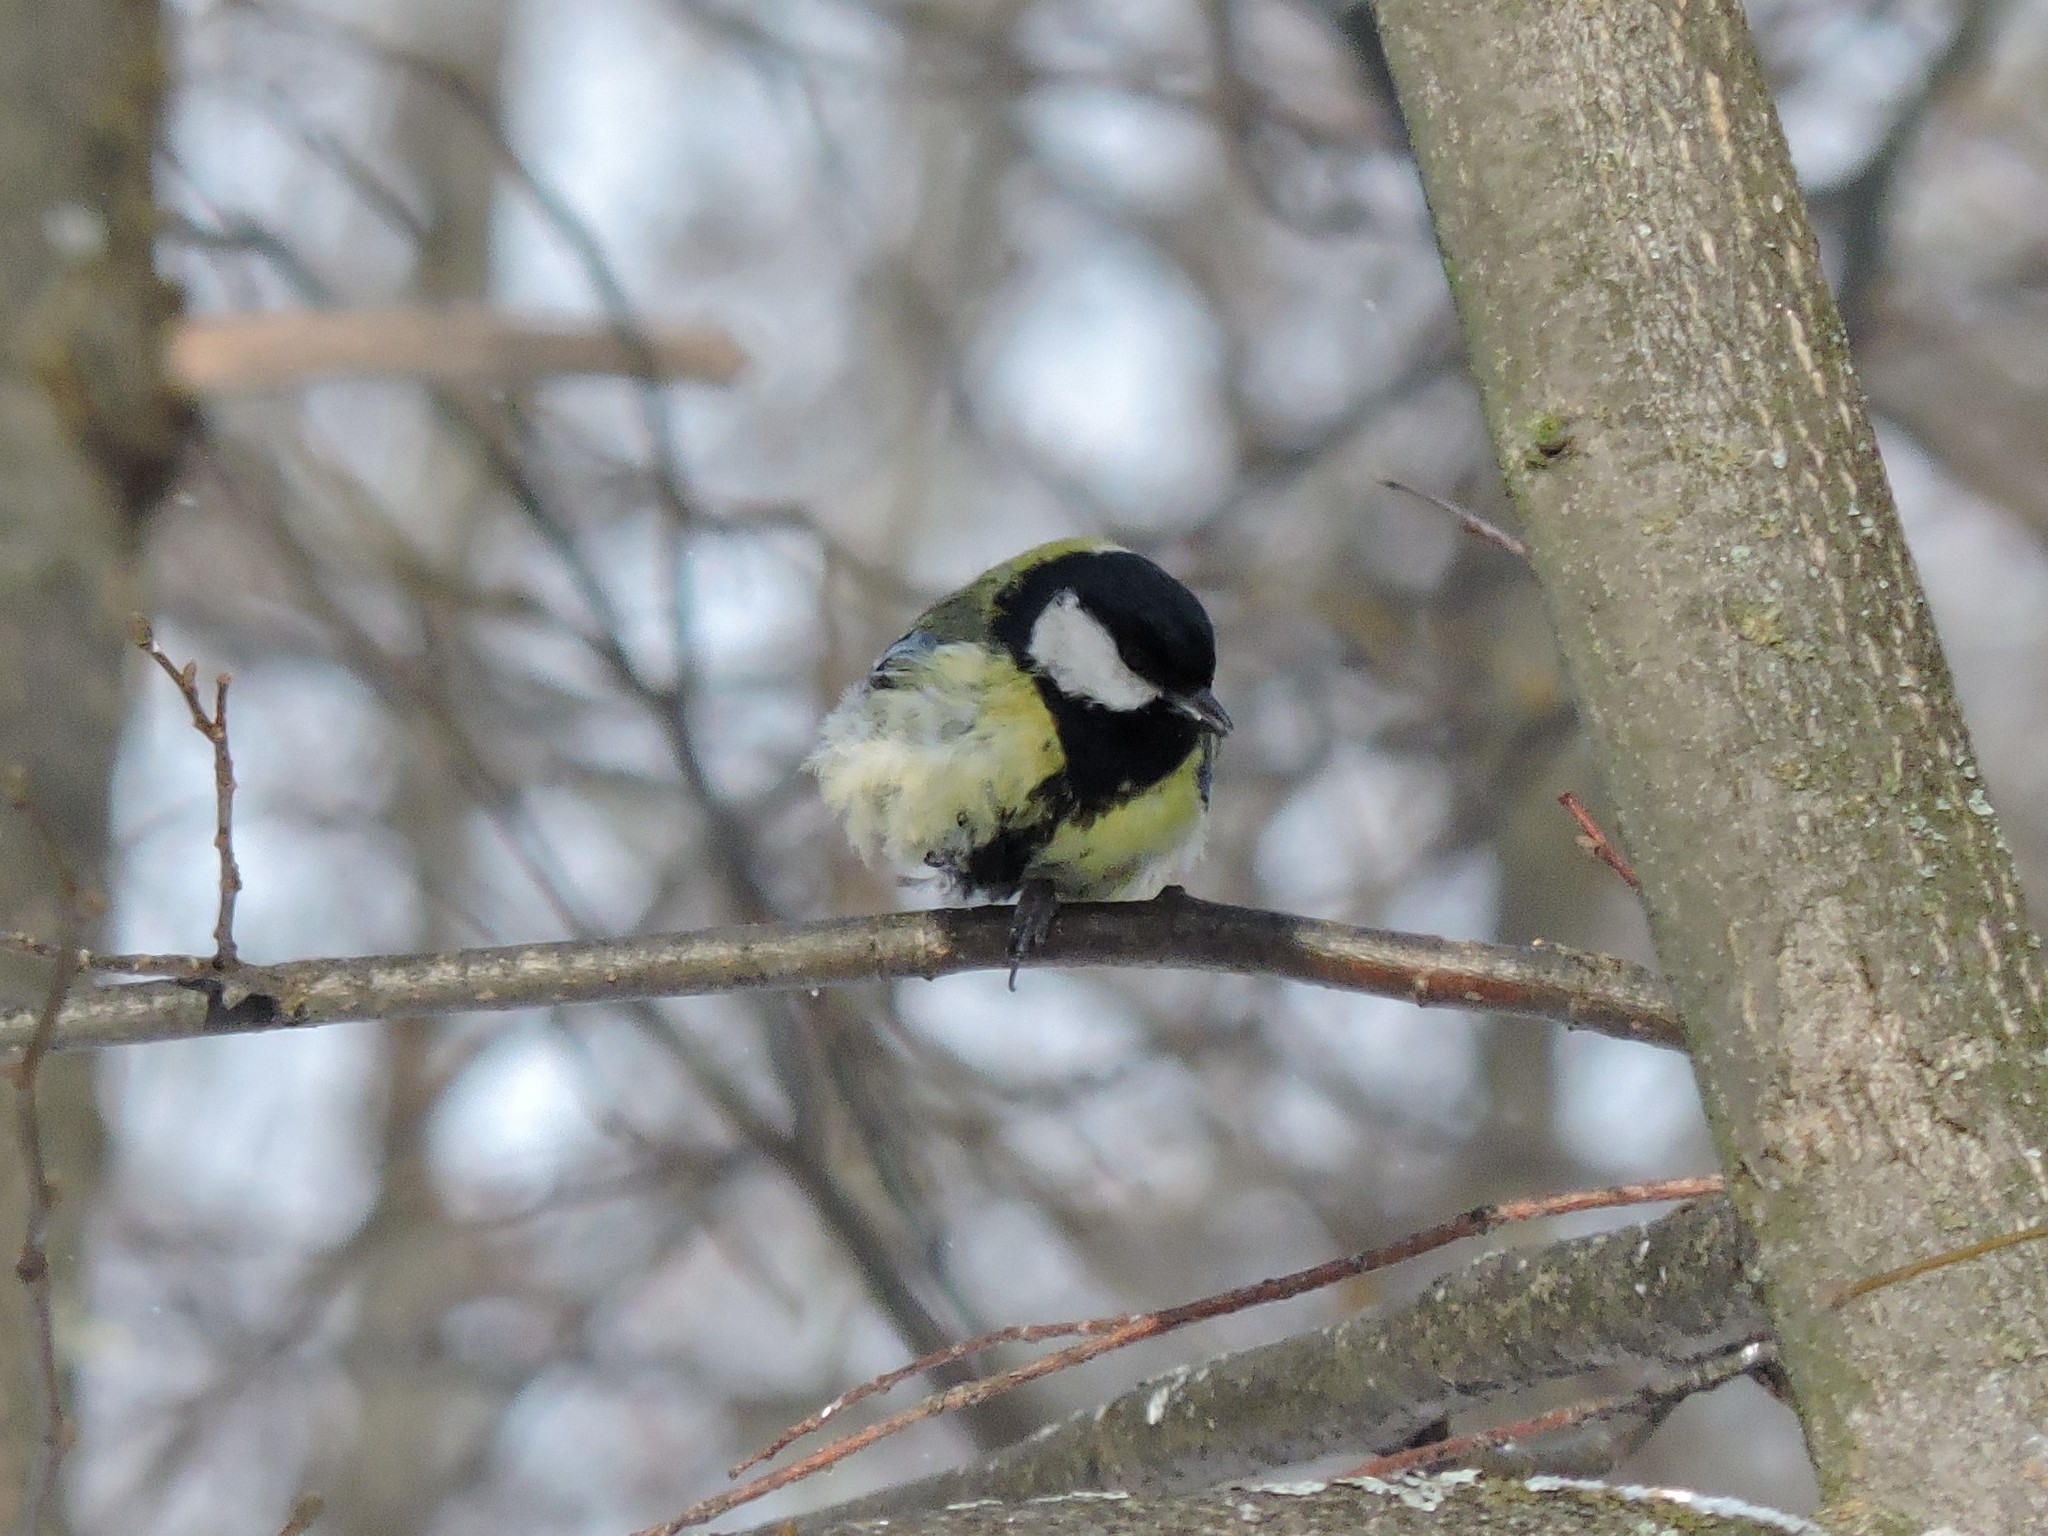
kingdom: Animalia
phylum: Chordata
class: Aves
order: Passeriformes
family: Paridae
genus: Parus
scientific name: Parus major
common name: Great tit
